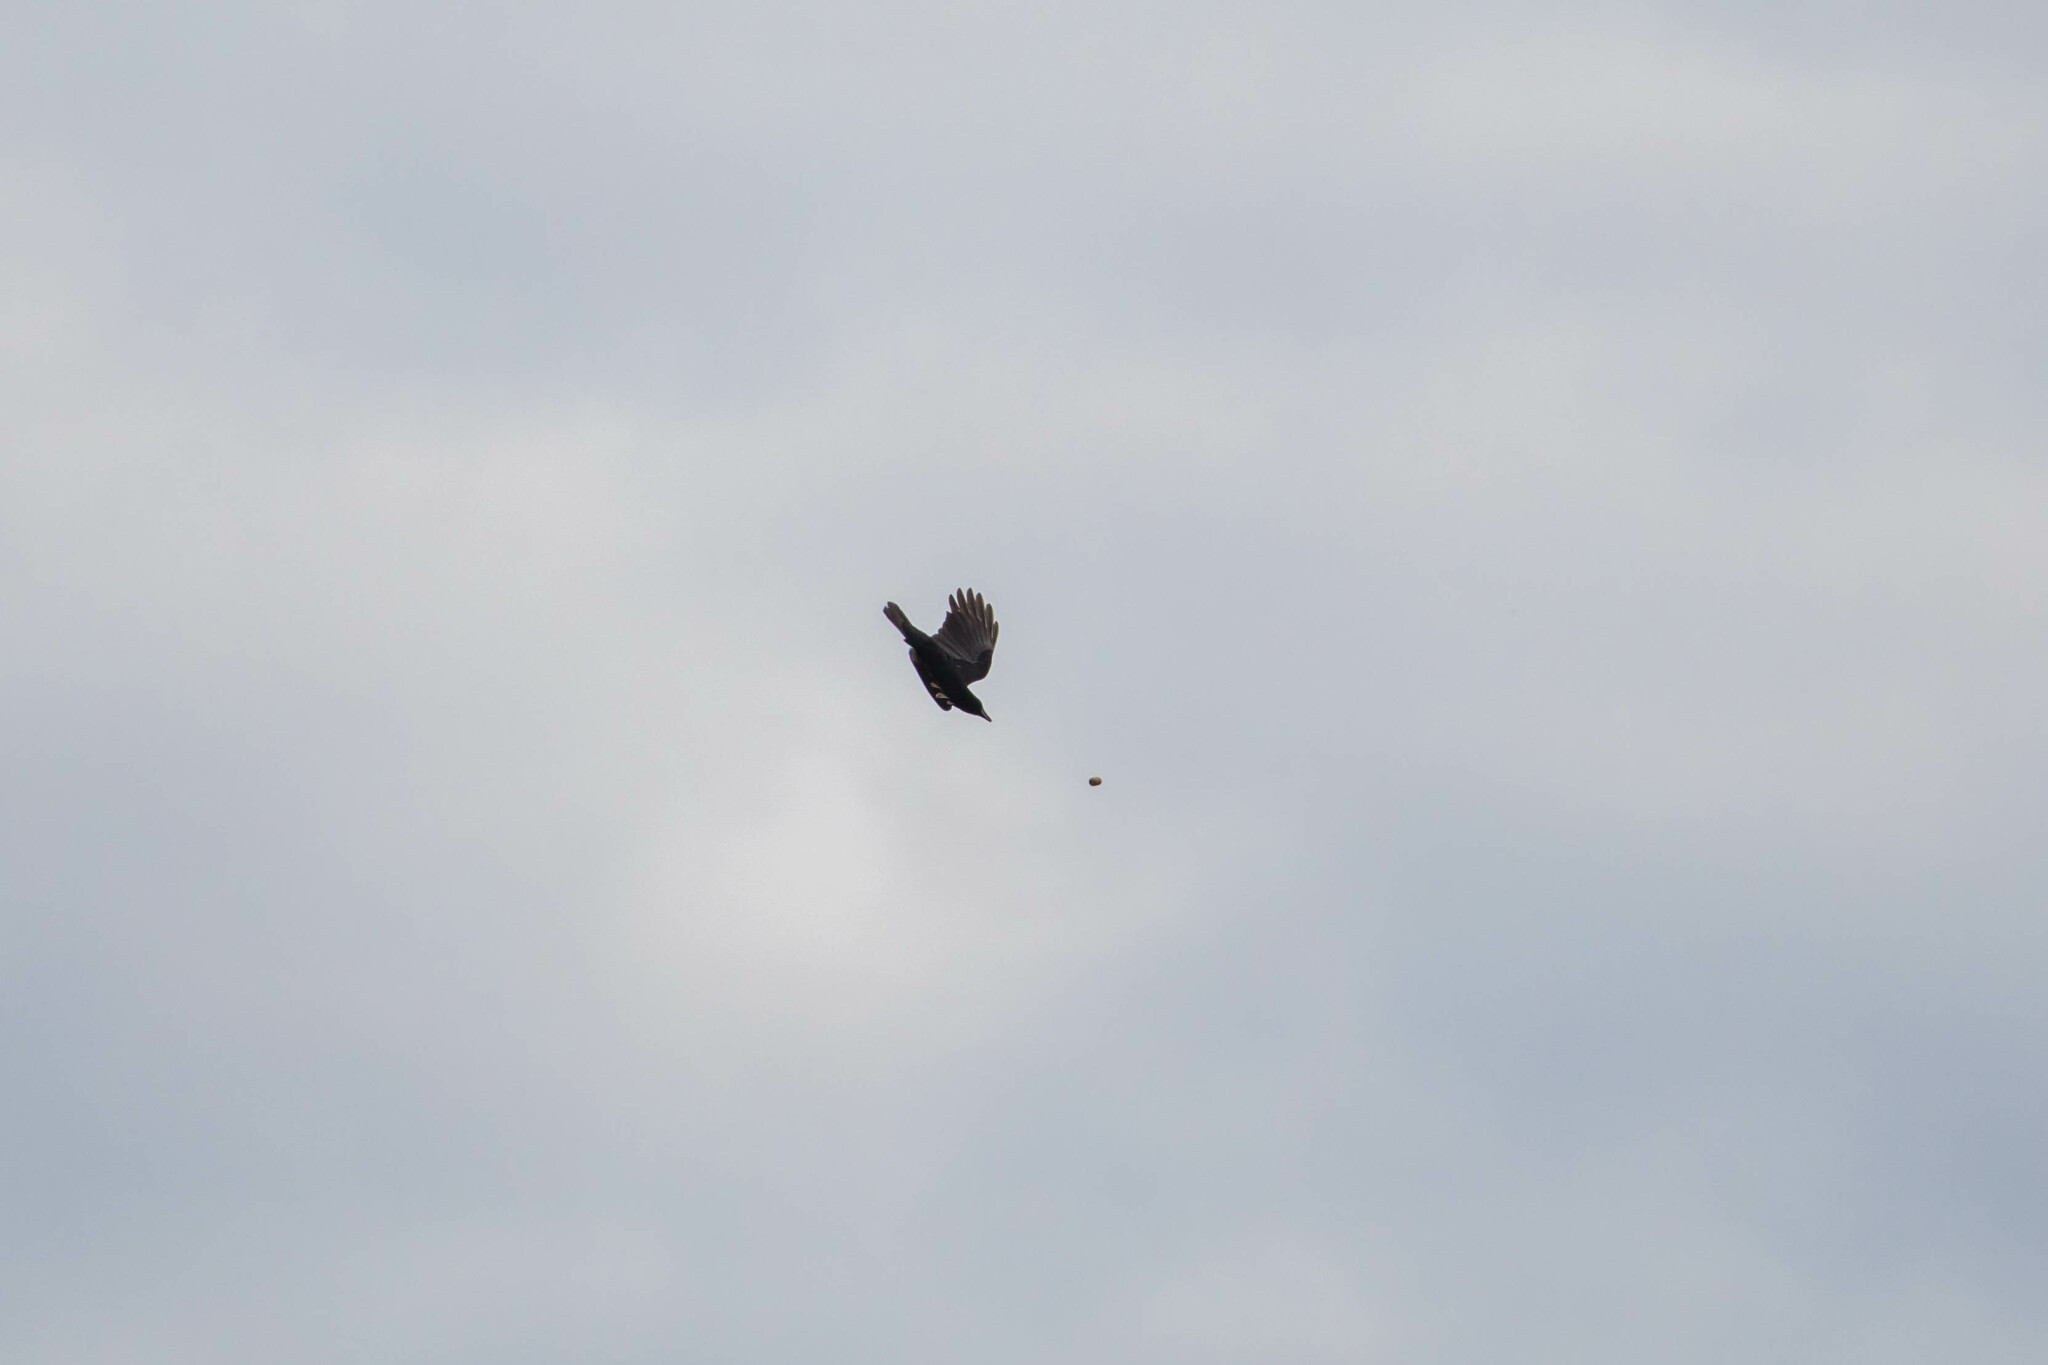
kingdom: Animalia
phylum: Chordata
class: Aves
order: Passeriformes
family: Corvidae
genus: Corvus
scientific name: Corvus brachyrhynchos
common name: American crow
